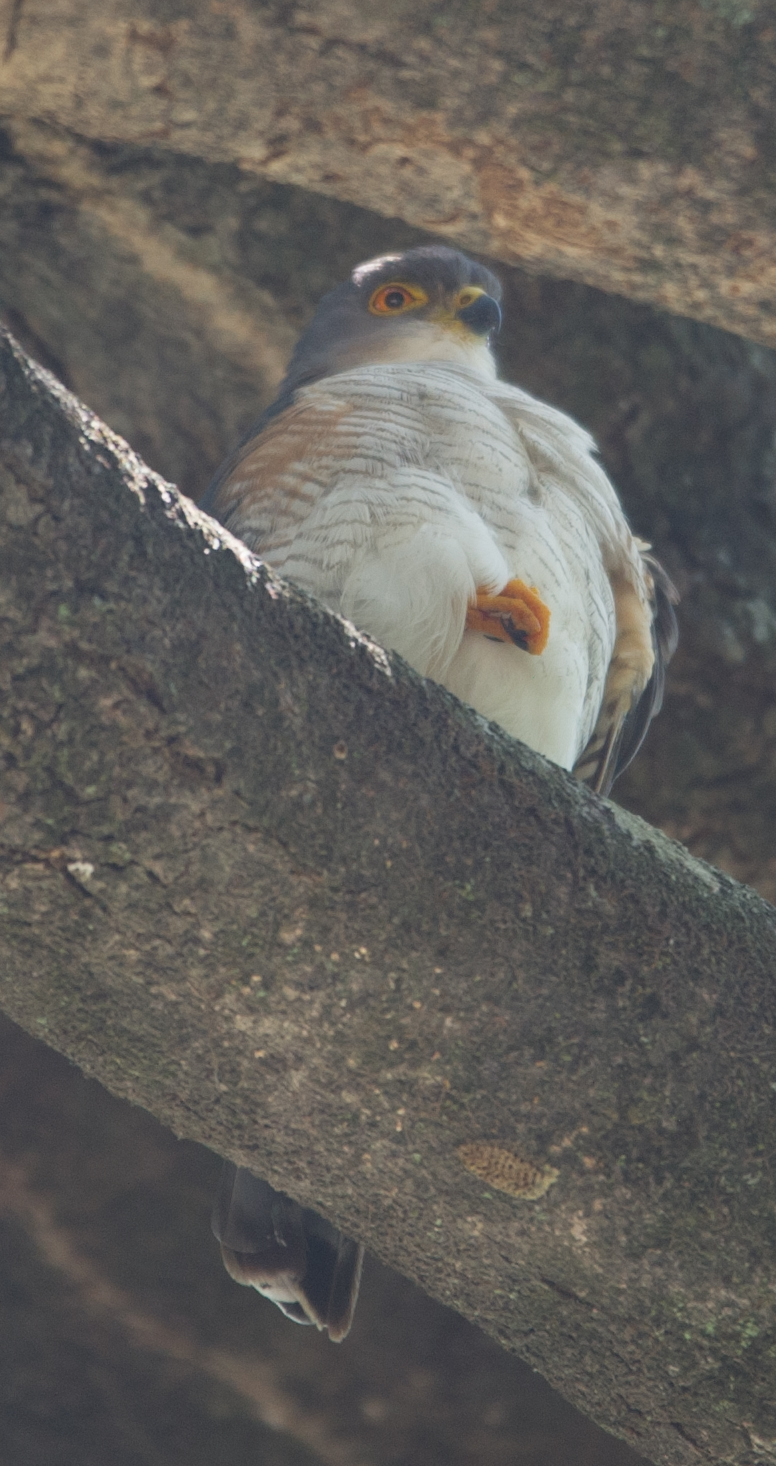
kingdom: Animalia
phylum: Chordata
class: Aves
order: Accipitriformes
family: Accipitridae
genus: Accipiter
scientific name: Accipiter minullus
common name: Little sparrowhawk
